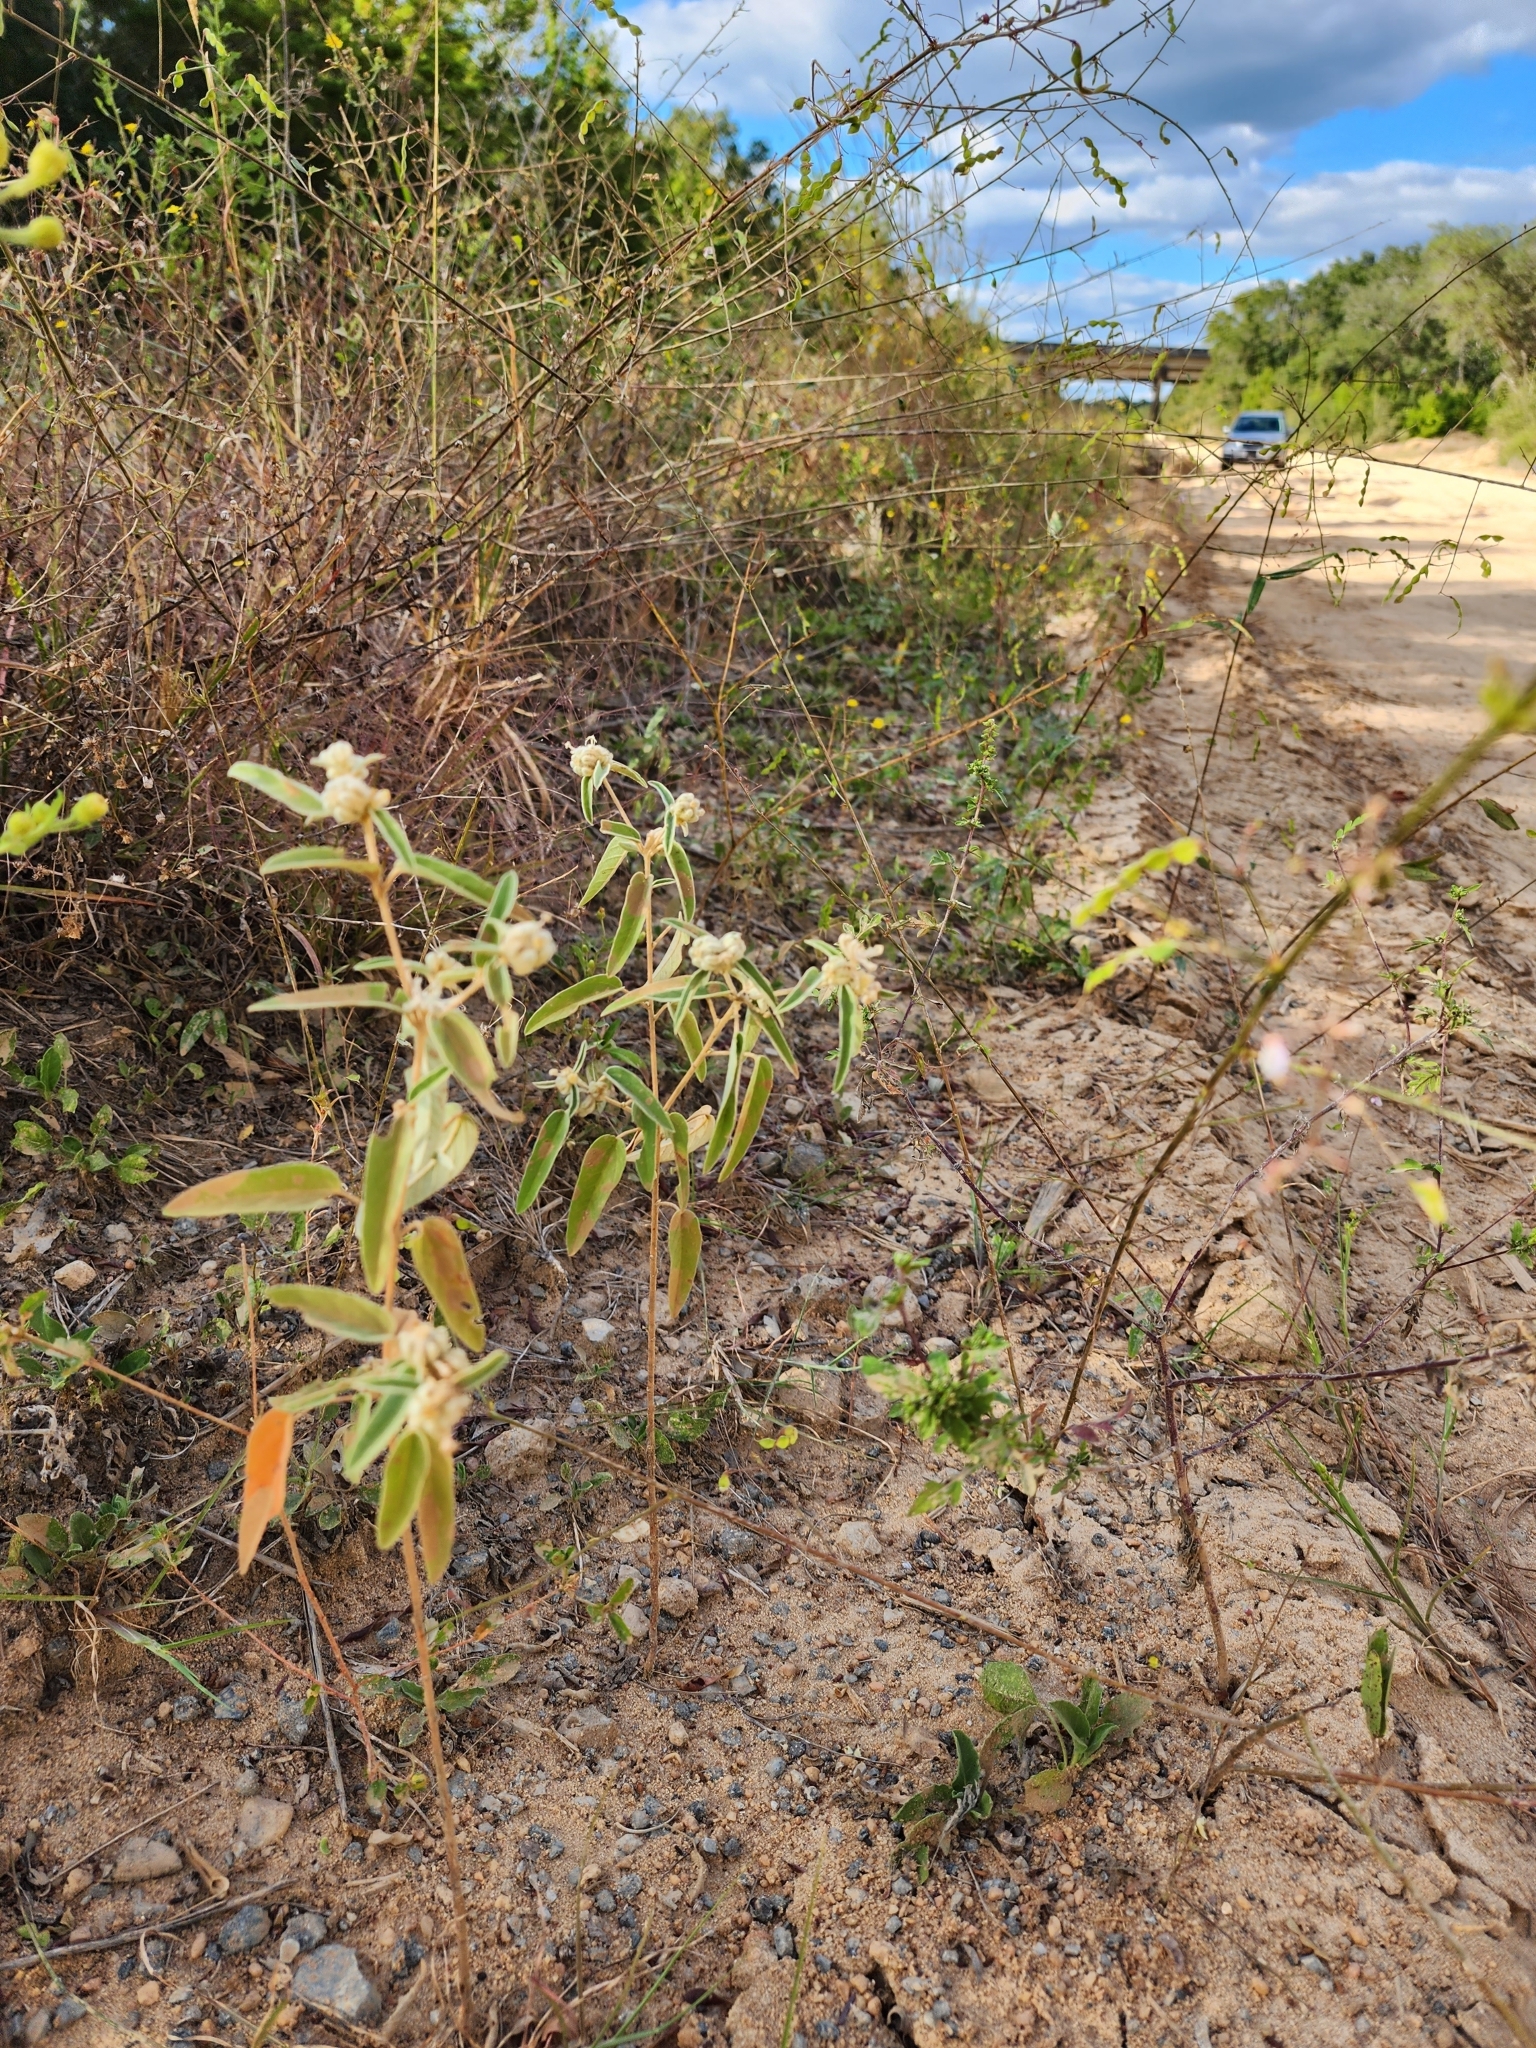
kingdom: Plantae
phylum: Tracheophyta
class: Magnoliopsida
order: Malpighiales
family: Euphorbiaceae
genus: Croton
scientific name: Croton lindheimeri
